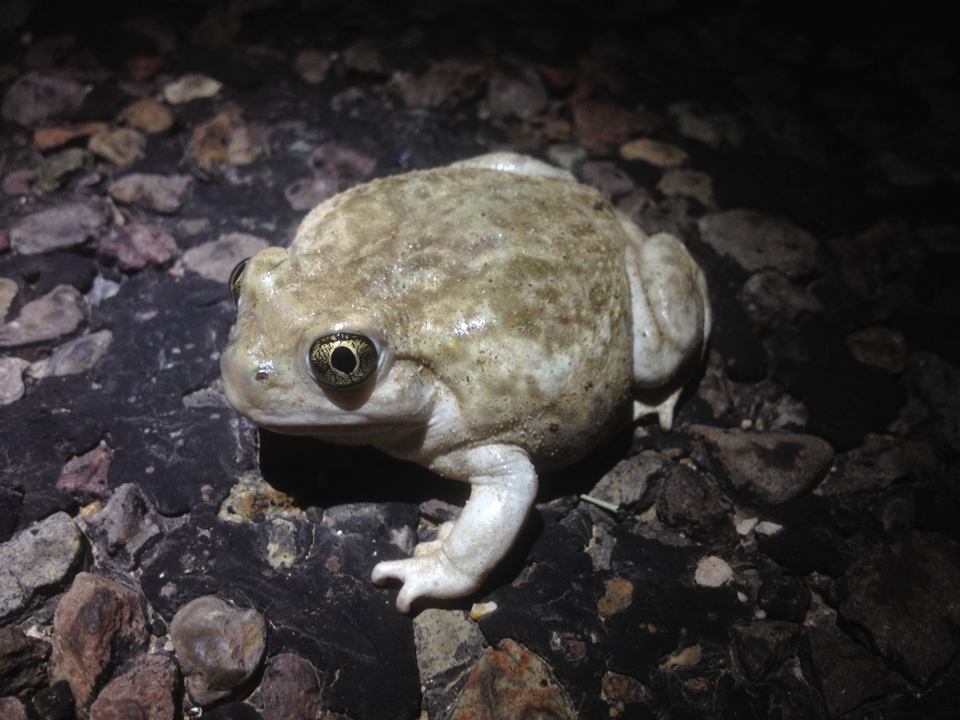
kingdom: Animalia
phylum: Chordata
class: Amphibia
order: Anura
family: Scaphiopodidae
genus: Spea
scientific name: Spea bombifrons
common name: Plains spadefoot
